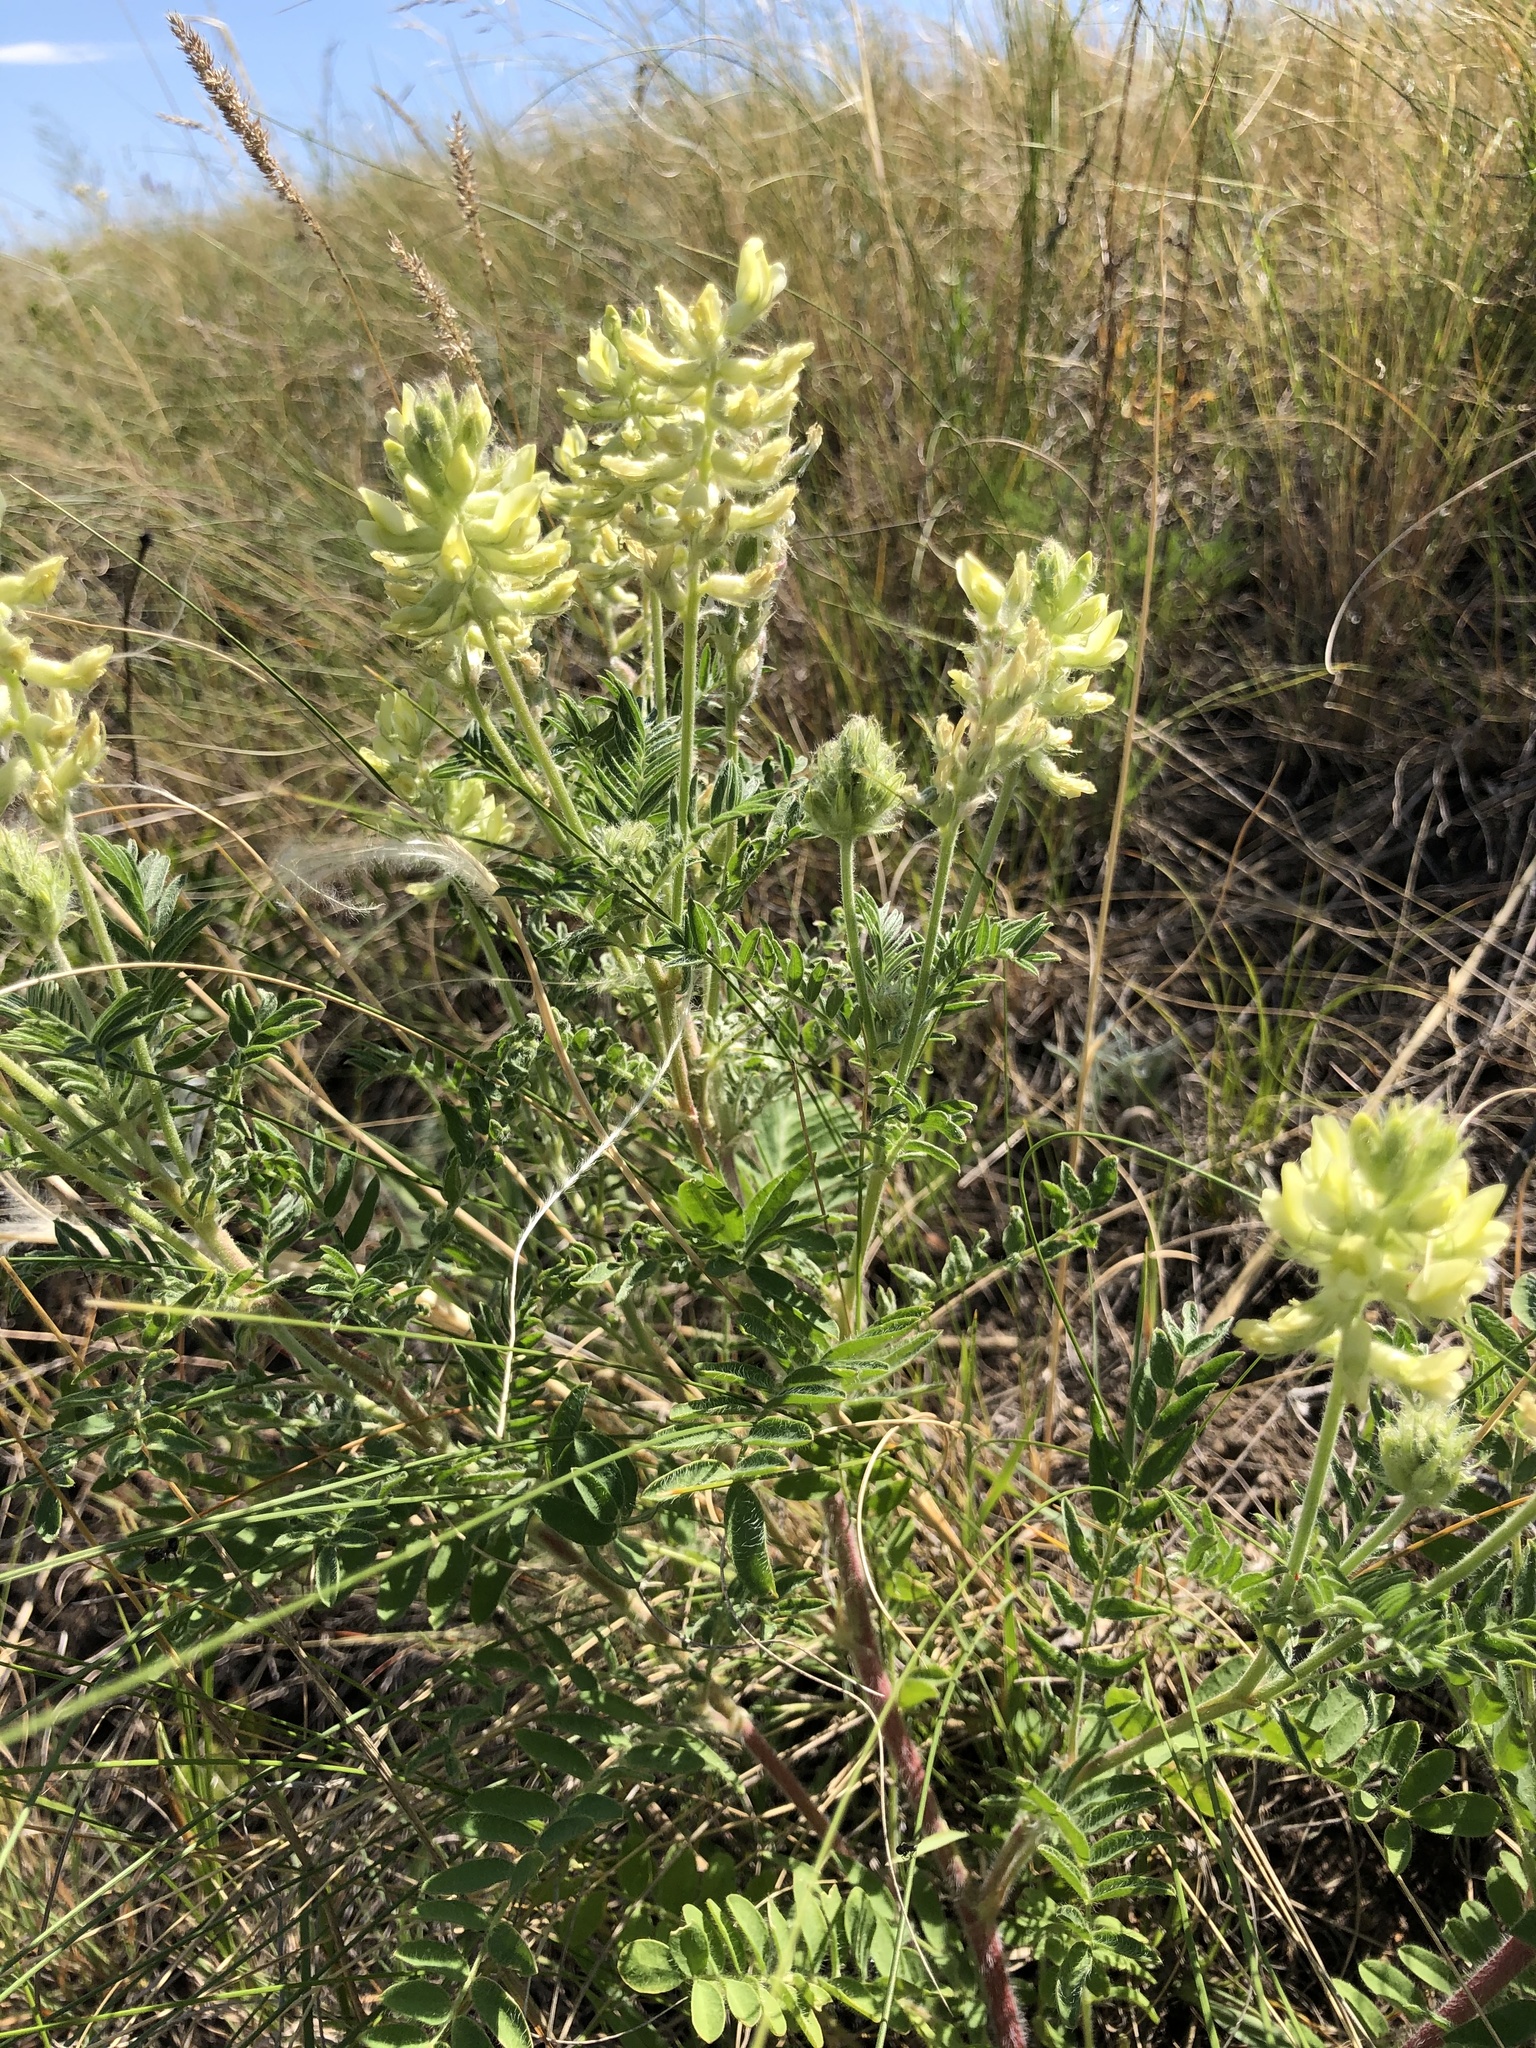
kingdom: Plantae
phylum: Tracheophyta
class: Magnoliopsida
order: Fabales
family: Fabaceae
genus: Oxytropis
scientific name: Oxytropis pilosa
